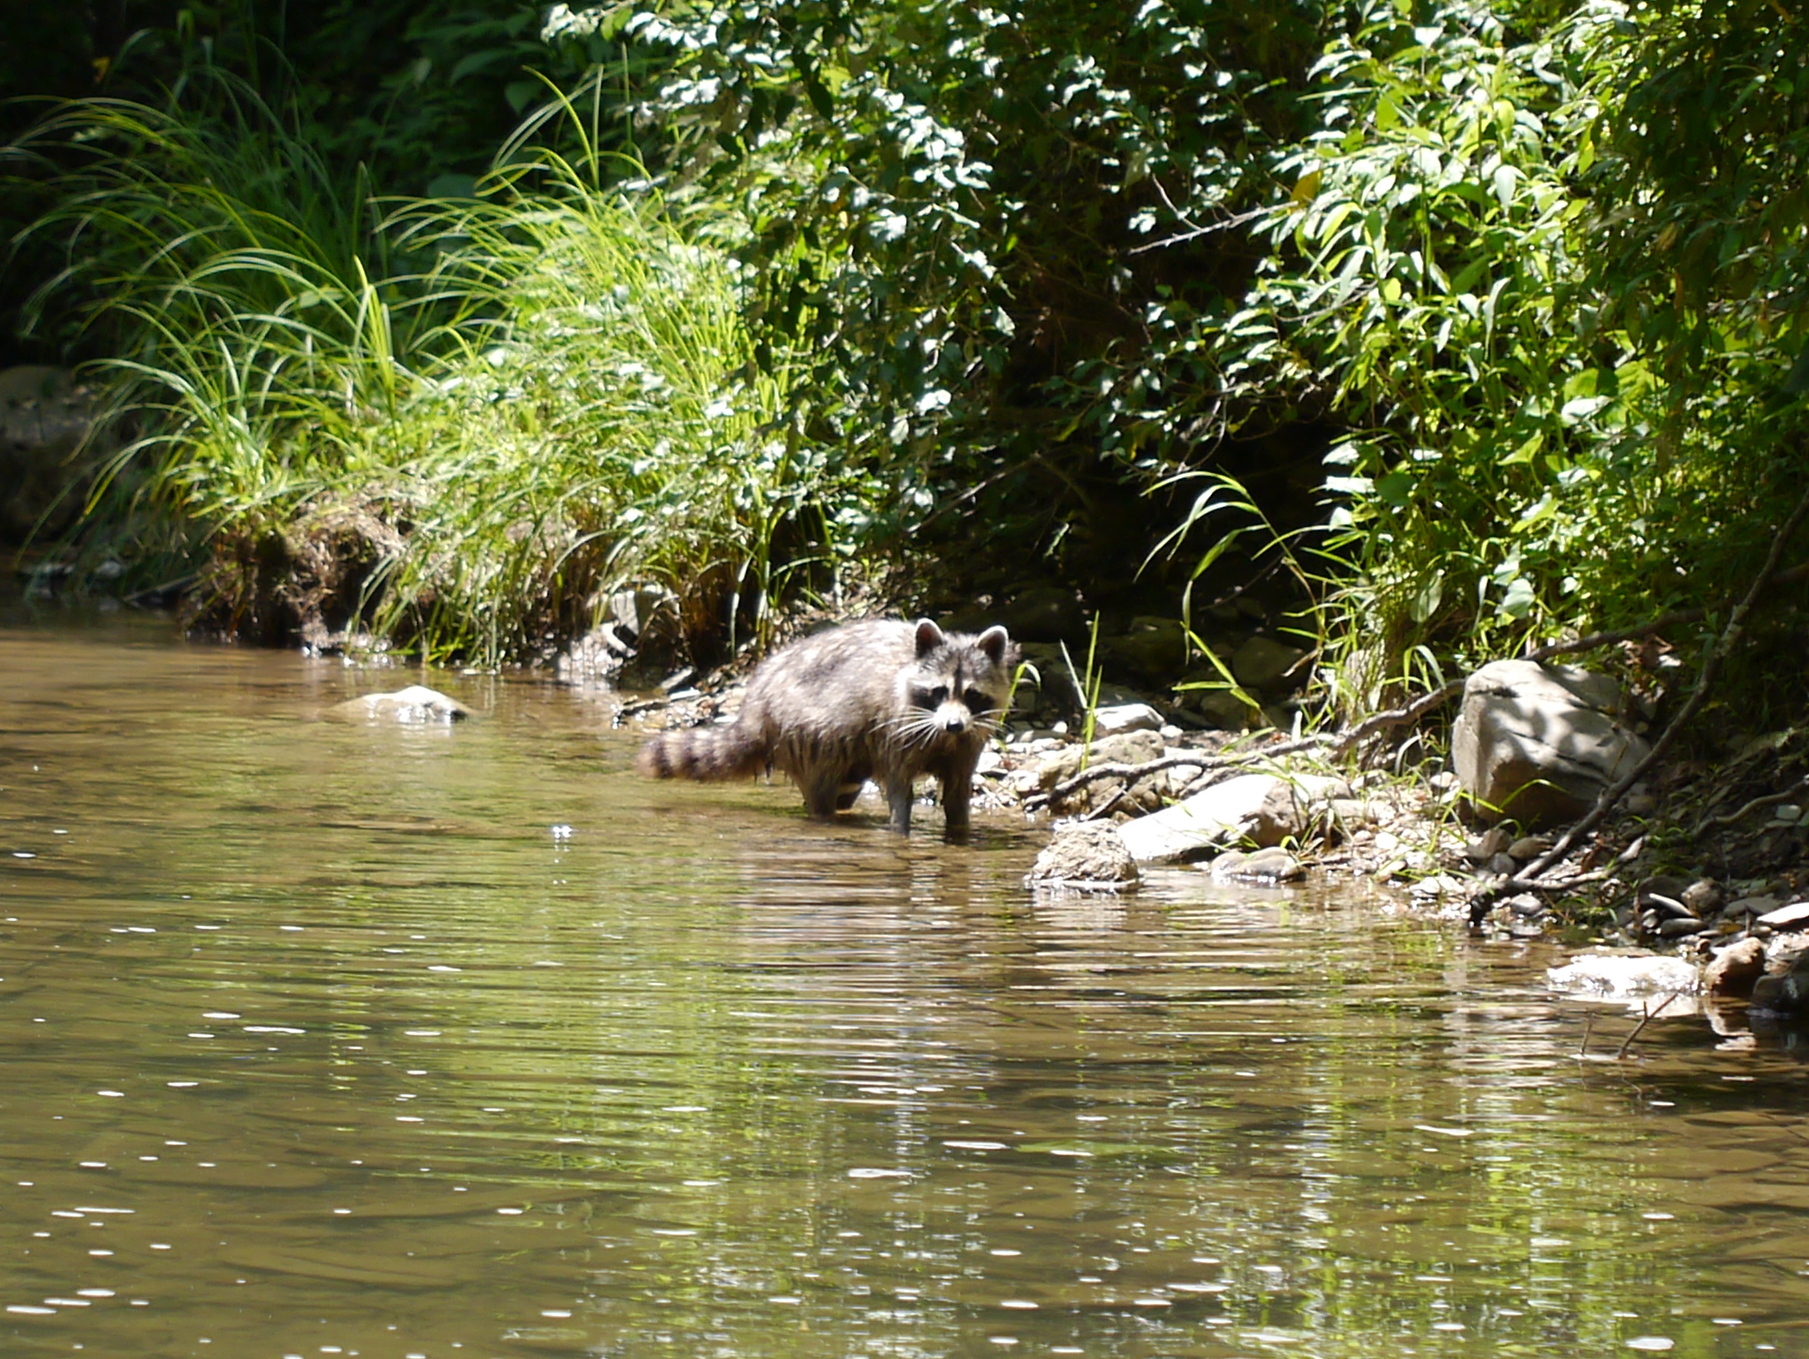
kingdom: Animalia
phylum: Chordata
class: Mammalia
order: Carnivora
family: Procyonidae
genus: Procyon
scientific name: Procyon lotor
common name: Raccoon
